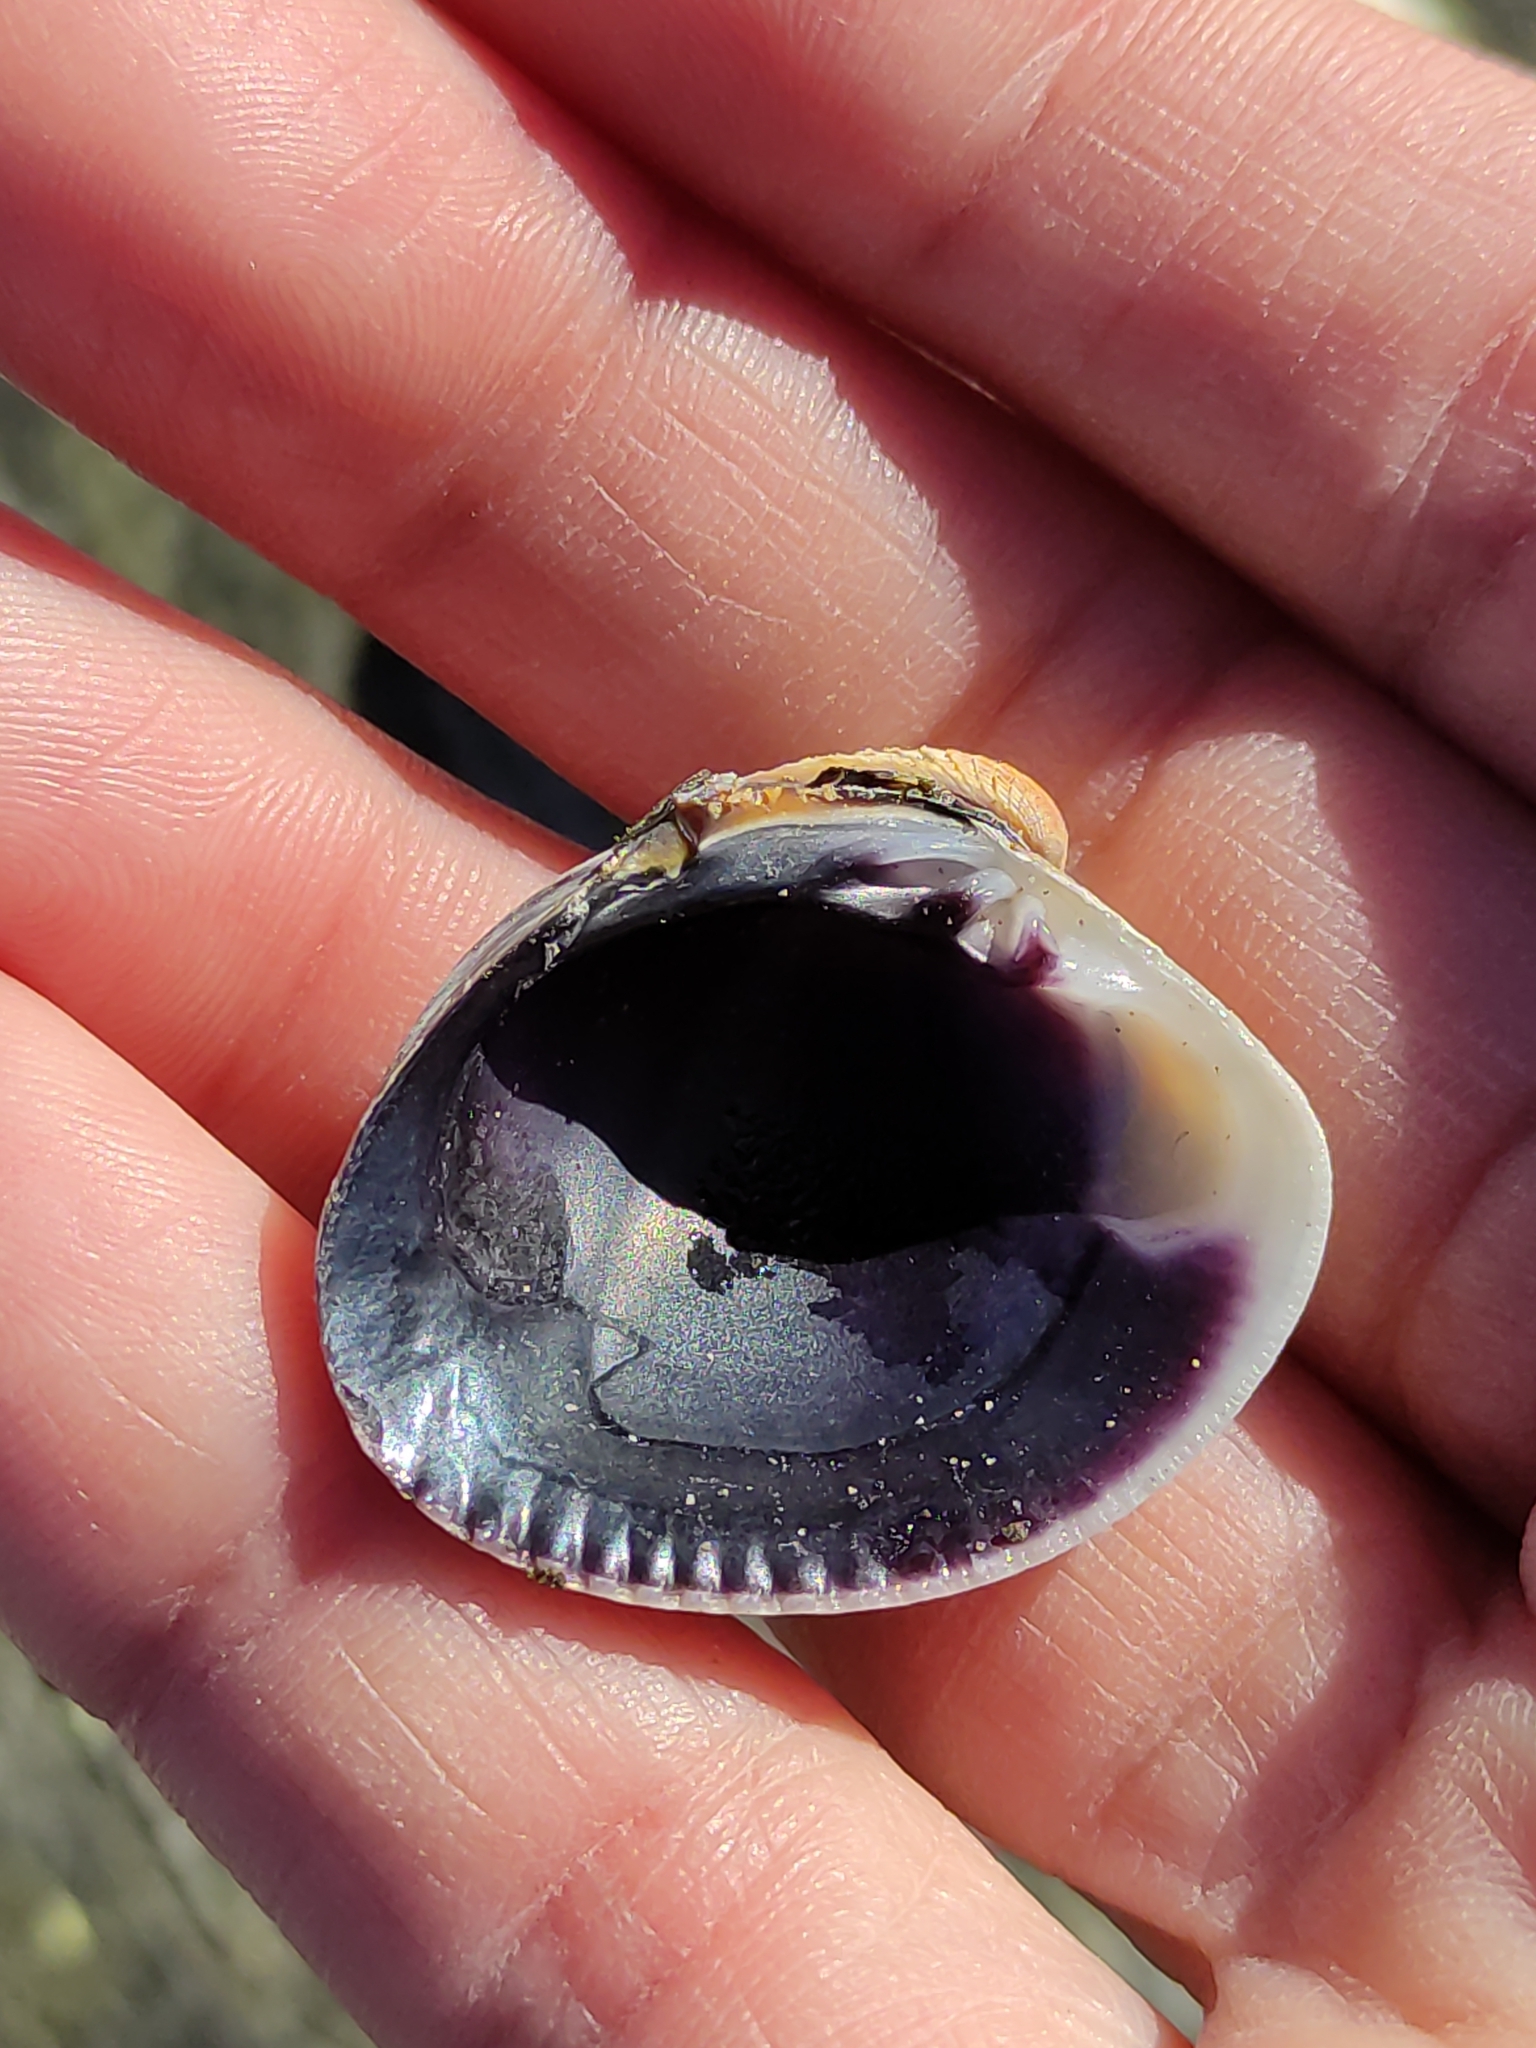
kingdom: Animalia
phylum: Mollusca
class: Bivalvia
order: Venerida
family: Veneridae
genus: Austrovenus
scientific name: Austrovenus stutchburyi
